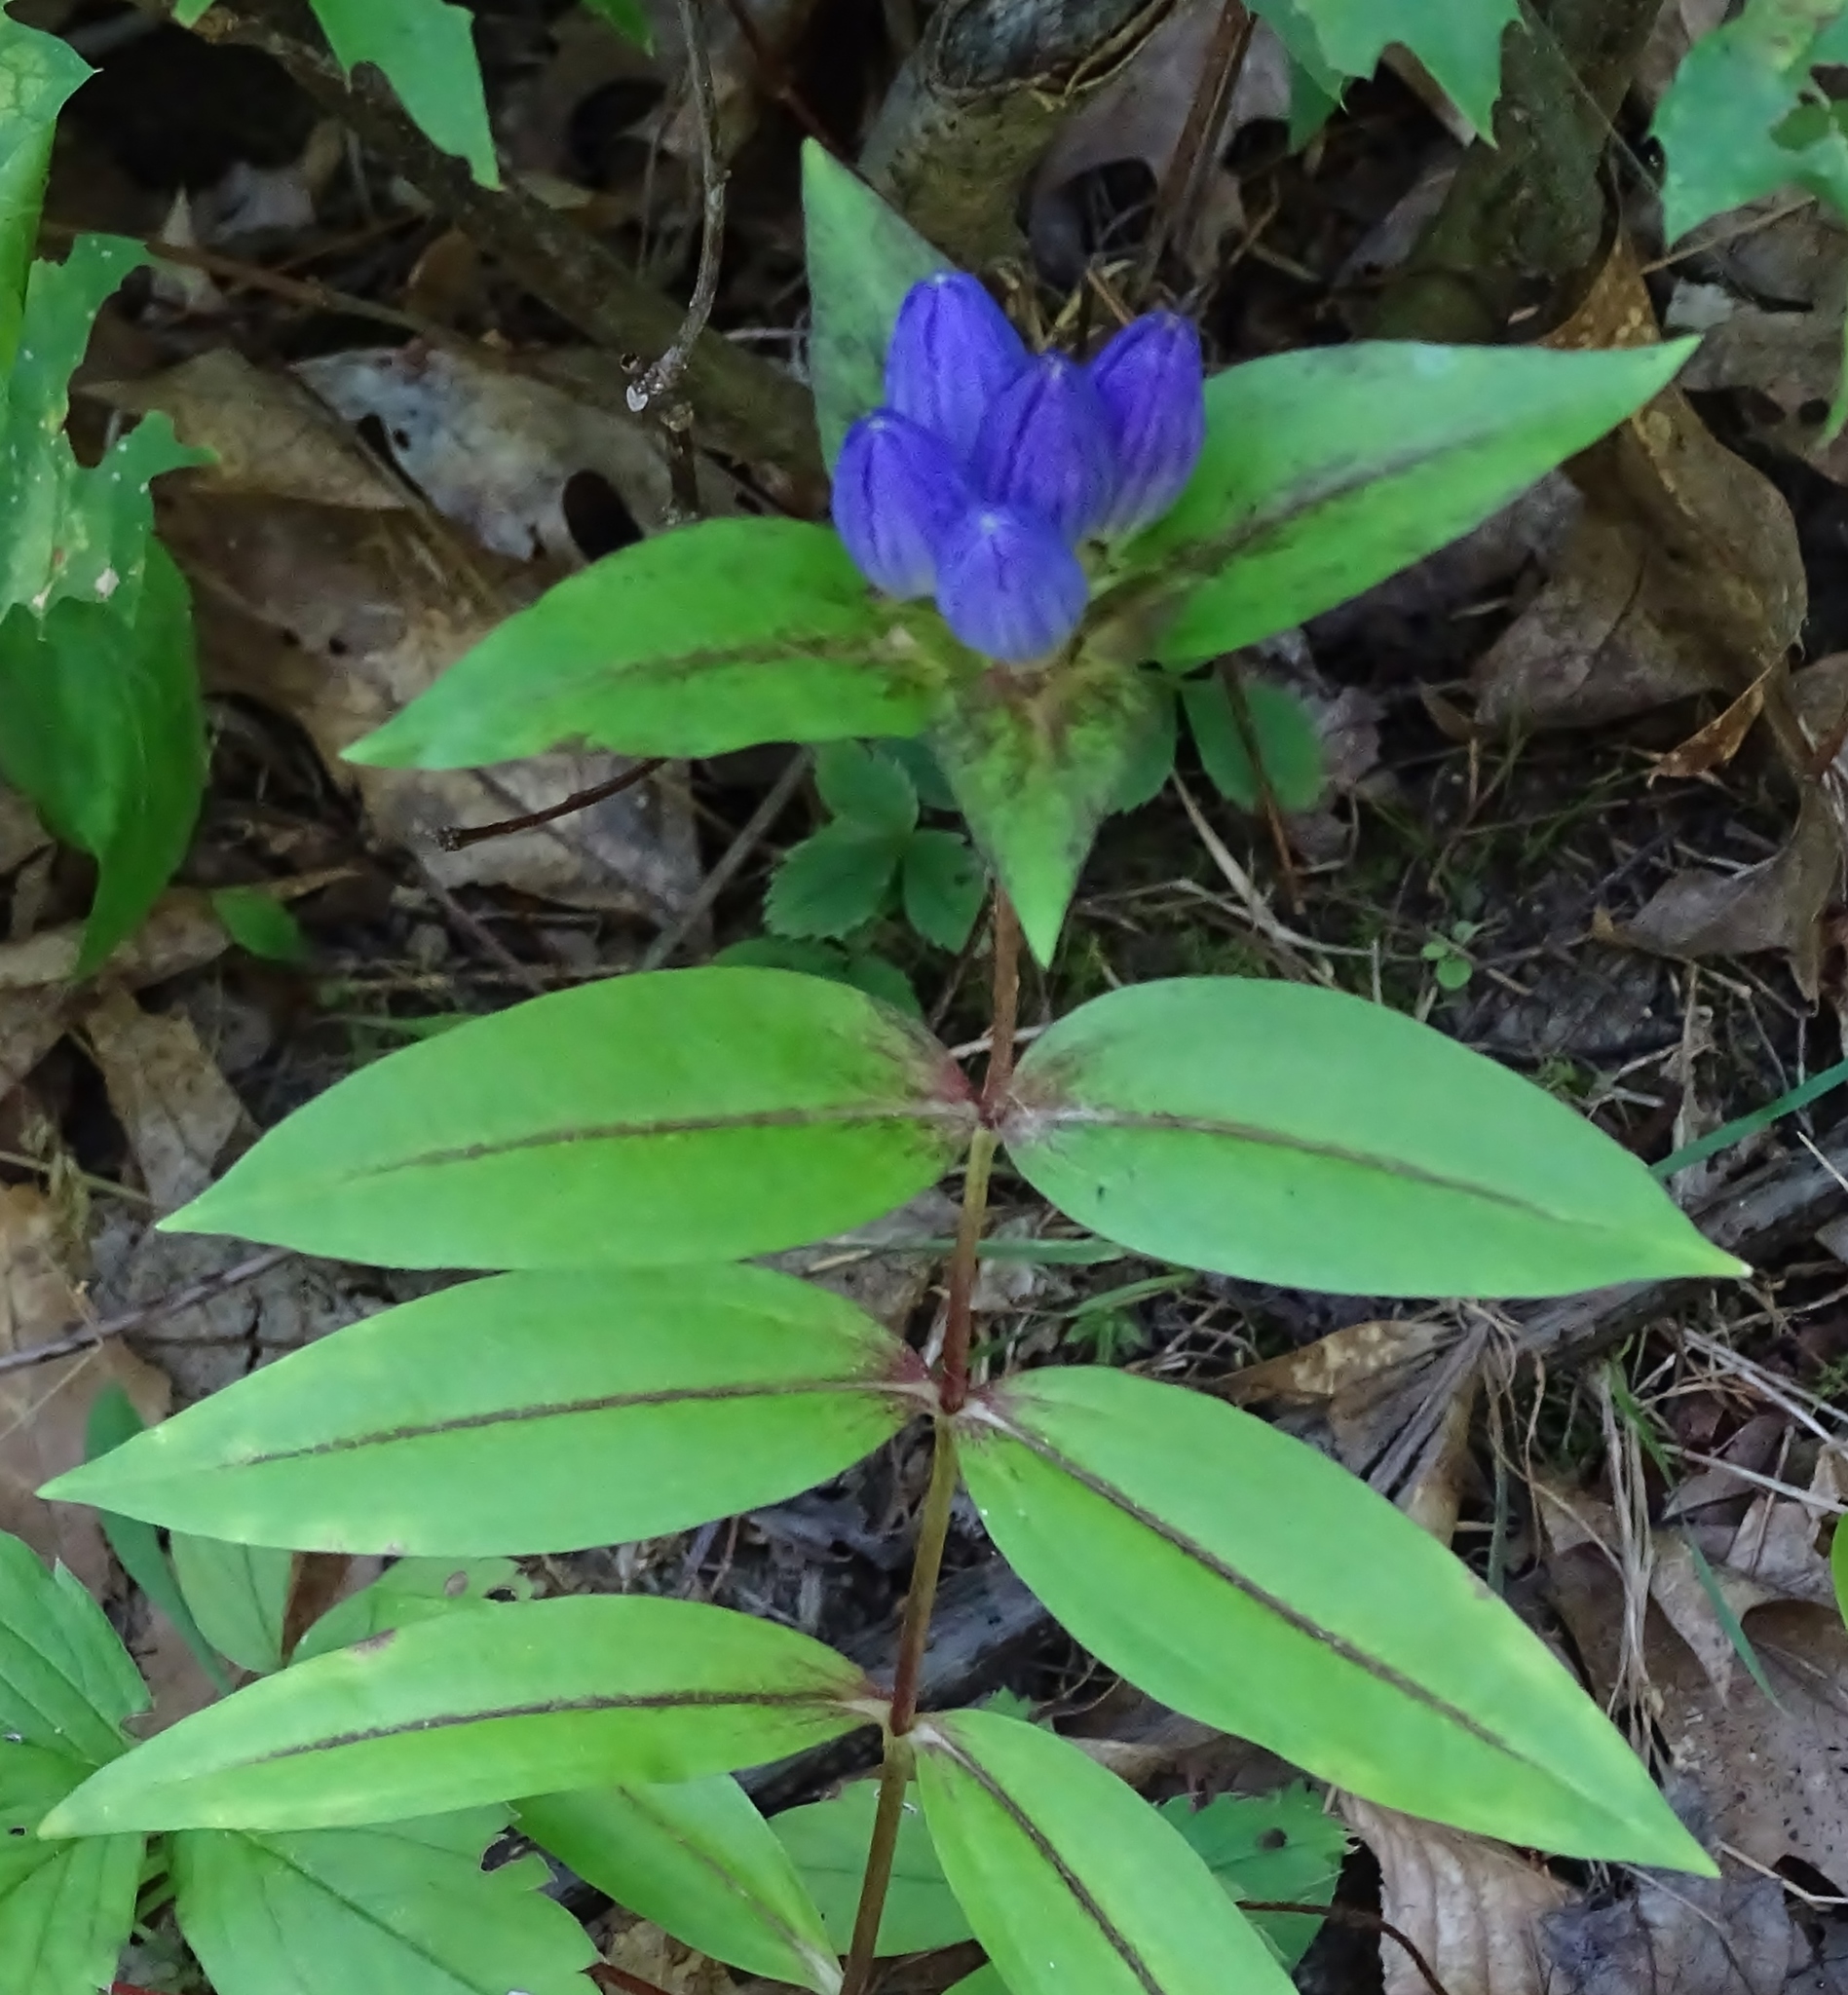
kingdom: Plantae
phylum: Tracheophyta
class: Magnoliopsida
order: Gentianales
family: Gentianaceae
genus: Gentiana
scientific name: Gentiana clausa
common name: Blind gentian
